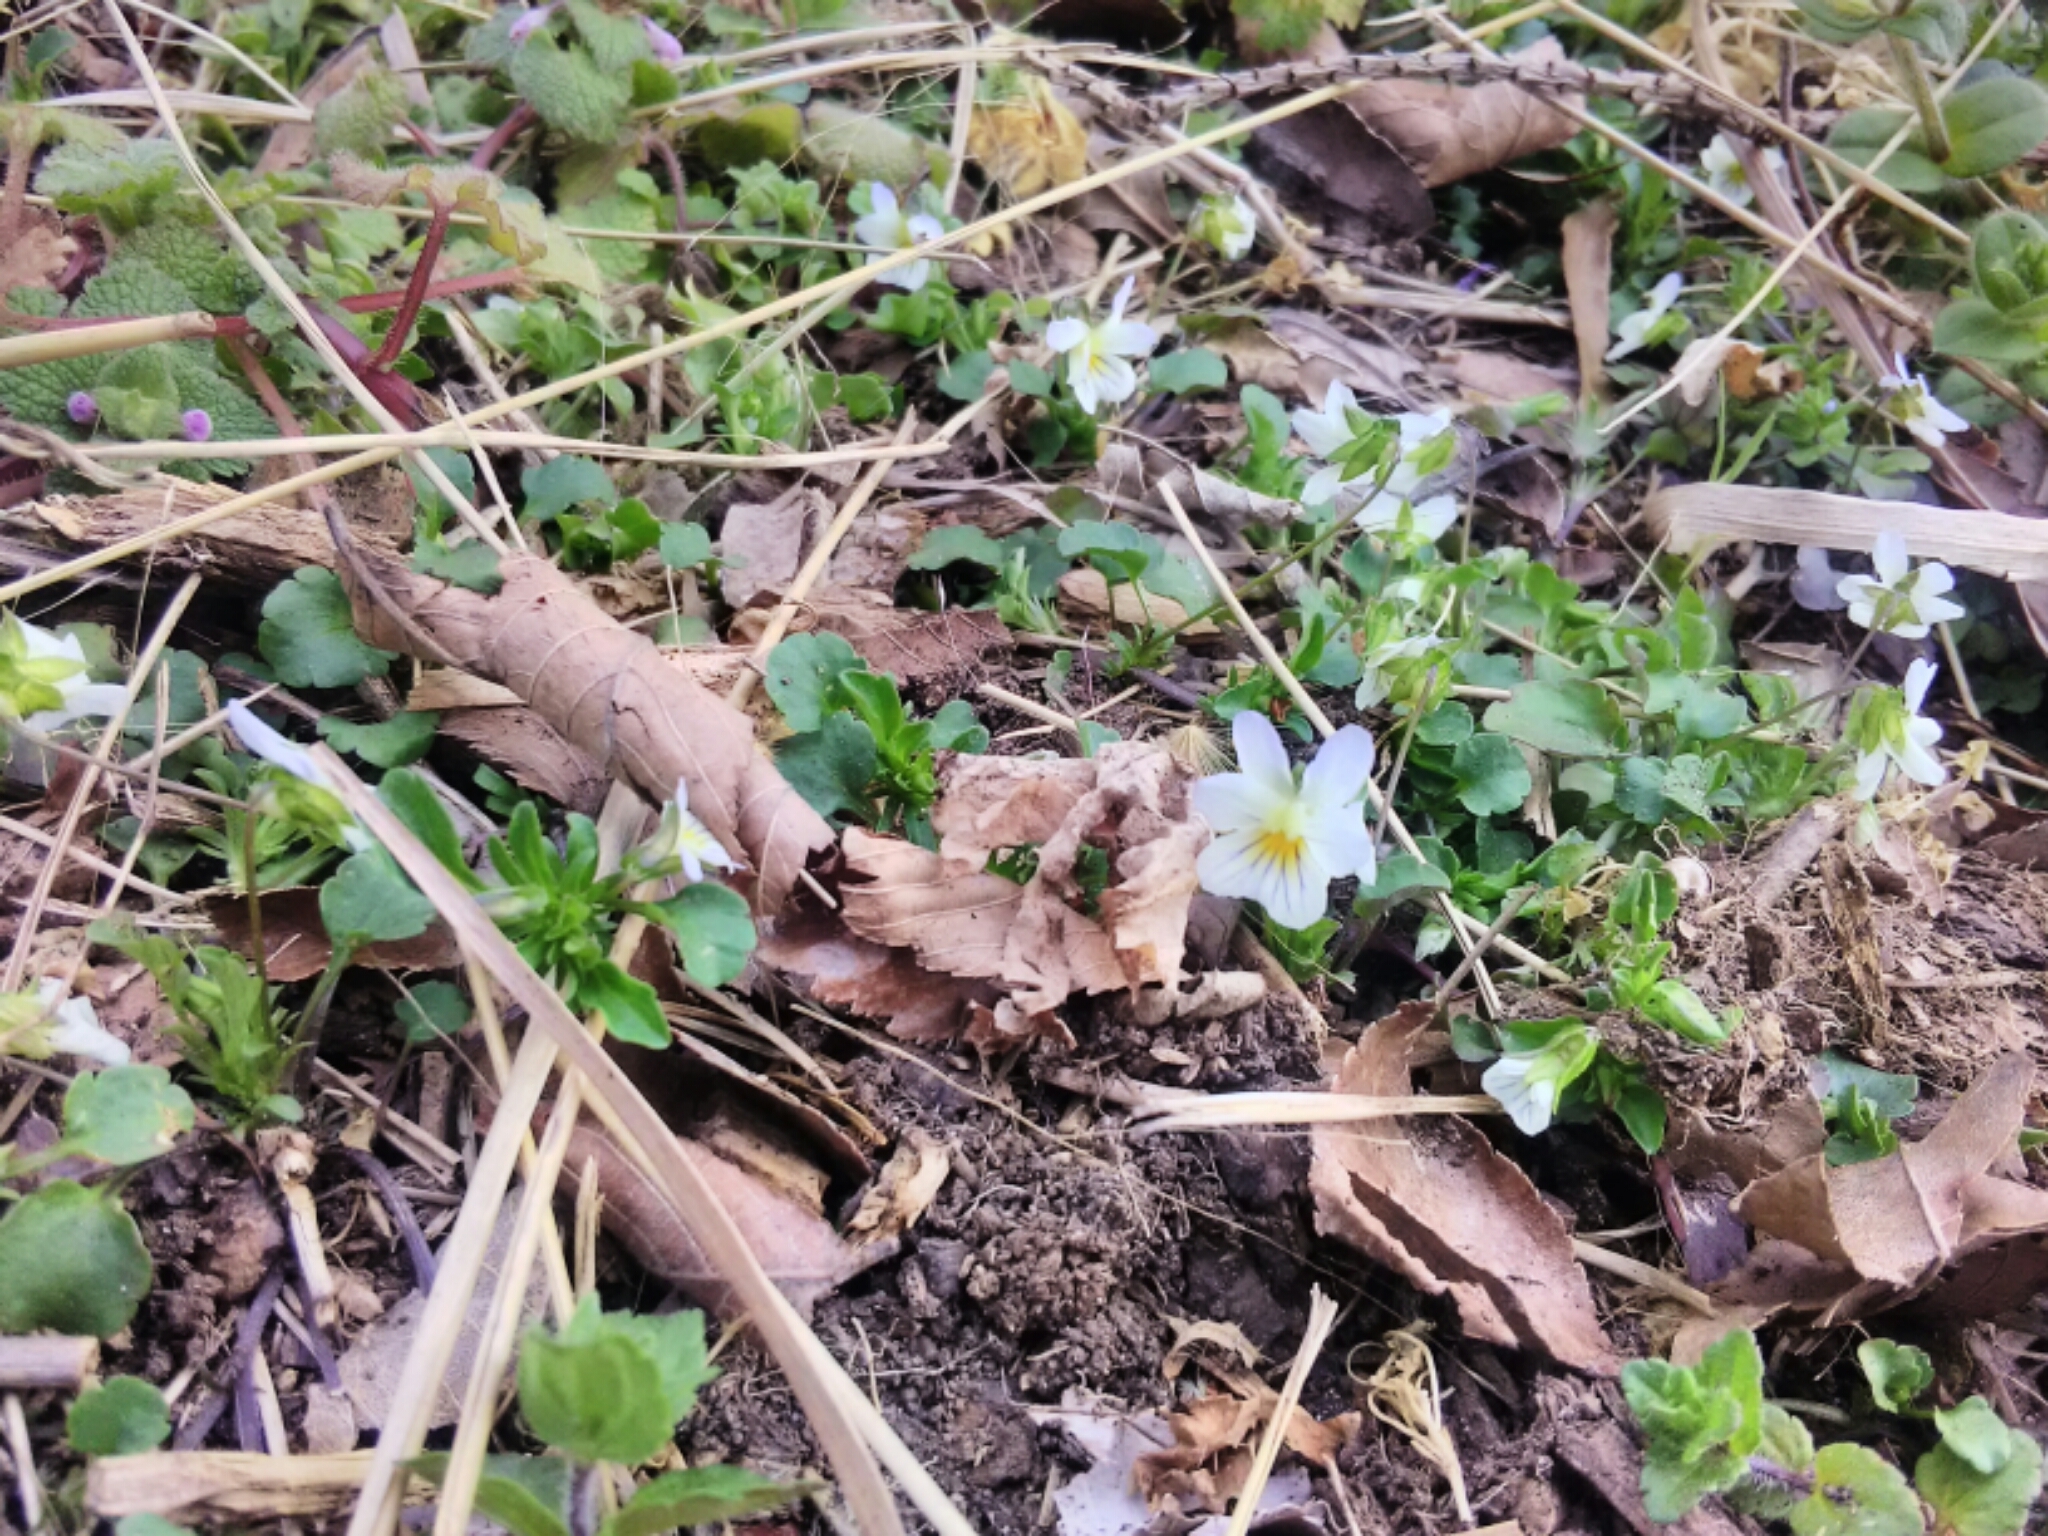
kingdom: Plantae
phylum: Tracheophyta
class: Magnoliopsida
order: Malpighiales
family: Violaceae
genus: Viola
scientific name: Viola rafinesquei
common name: American field pansy
